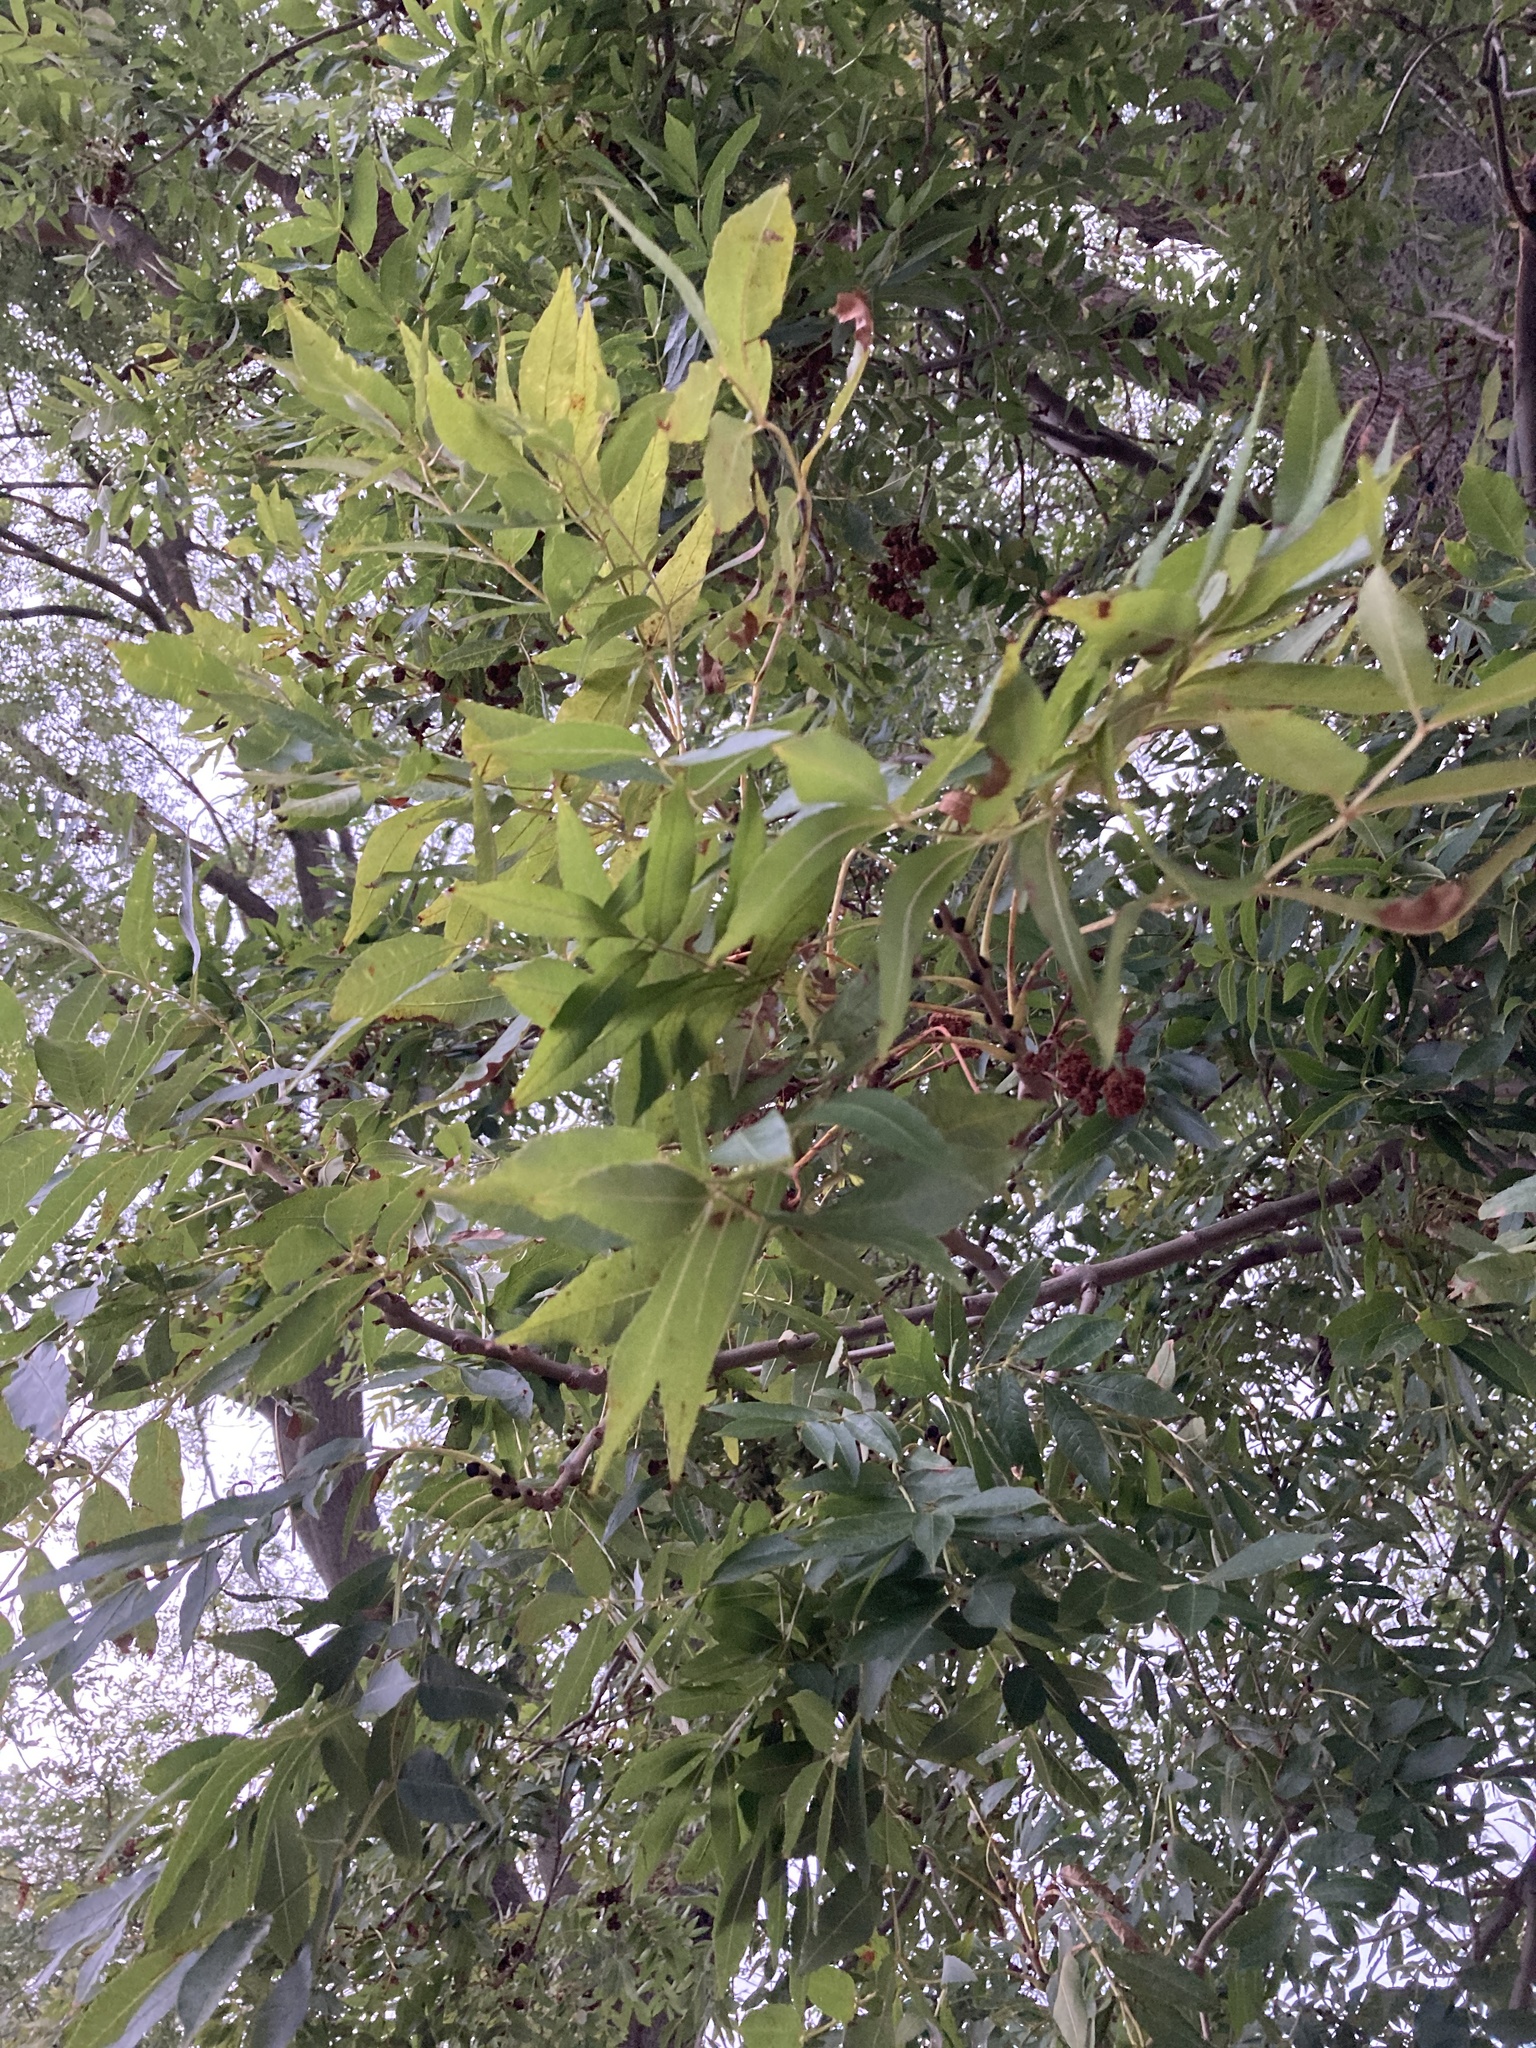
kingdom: Plantae
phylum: Tracheophyta
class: Magnoliopsida
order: Lamiales
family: Oleaceae
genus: Fraxinus
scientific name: Fraxinus excelsior
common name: European ash
